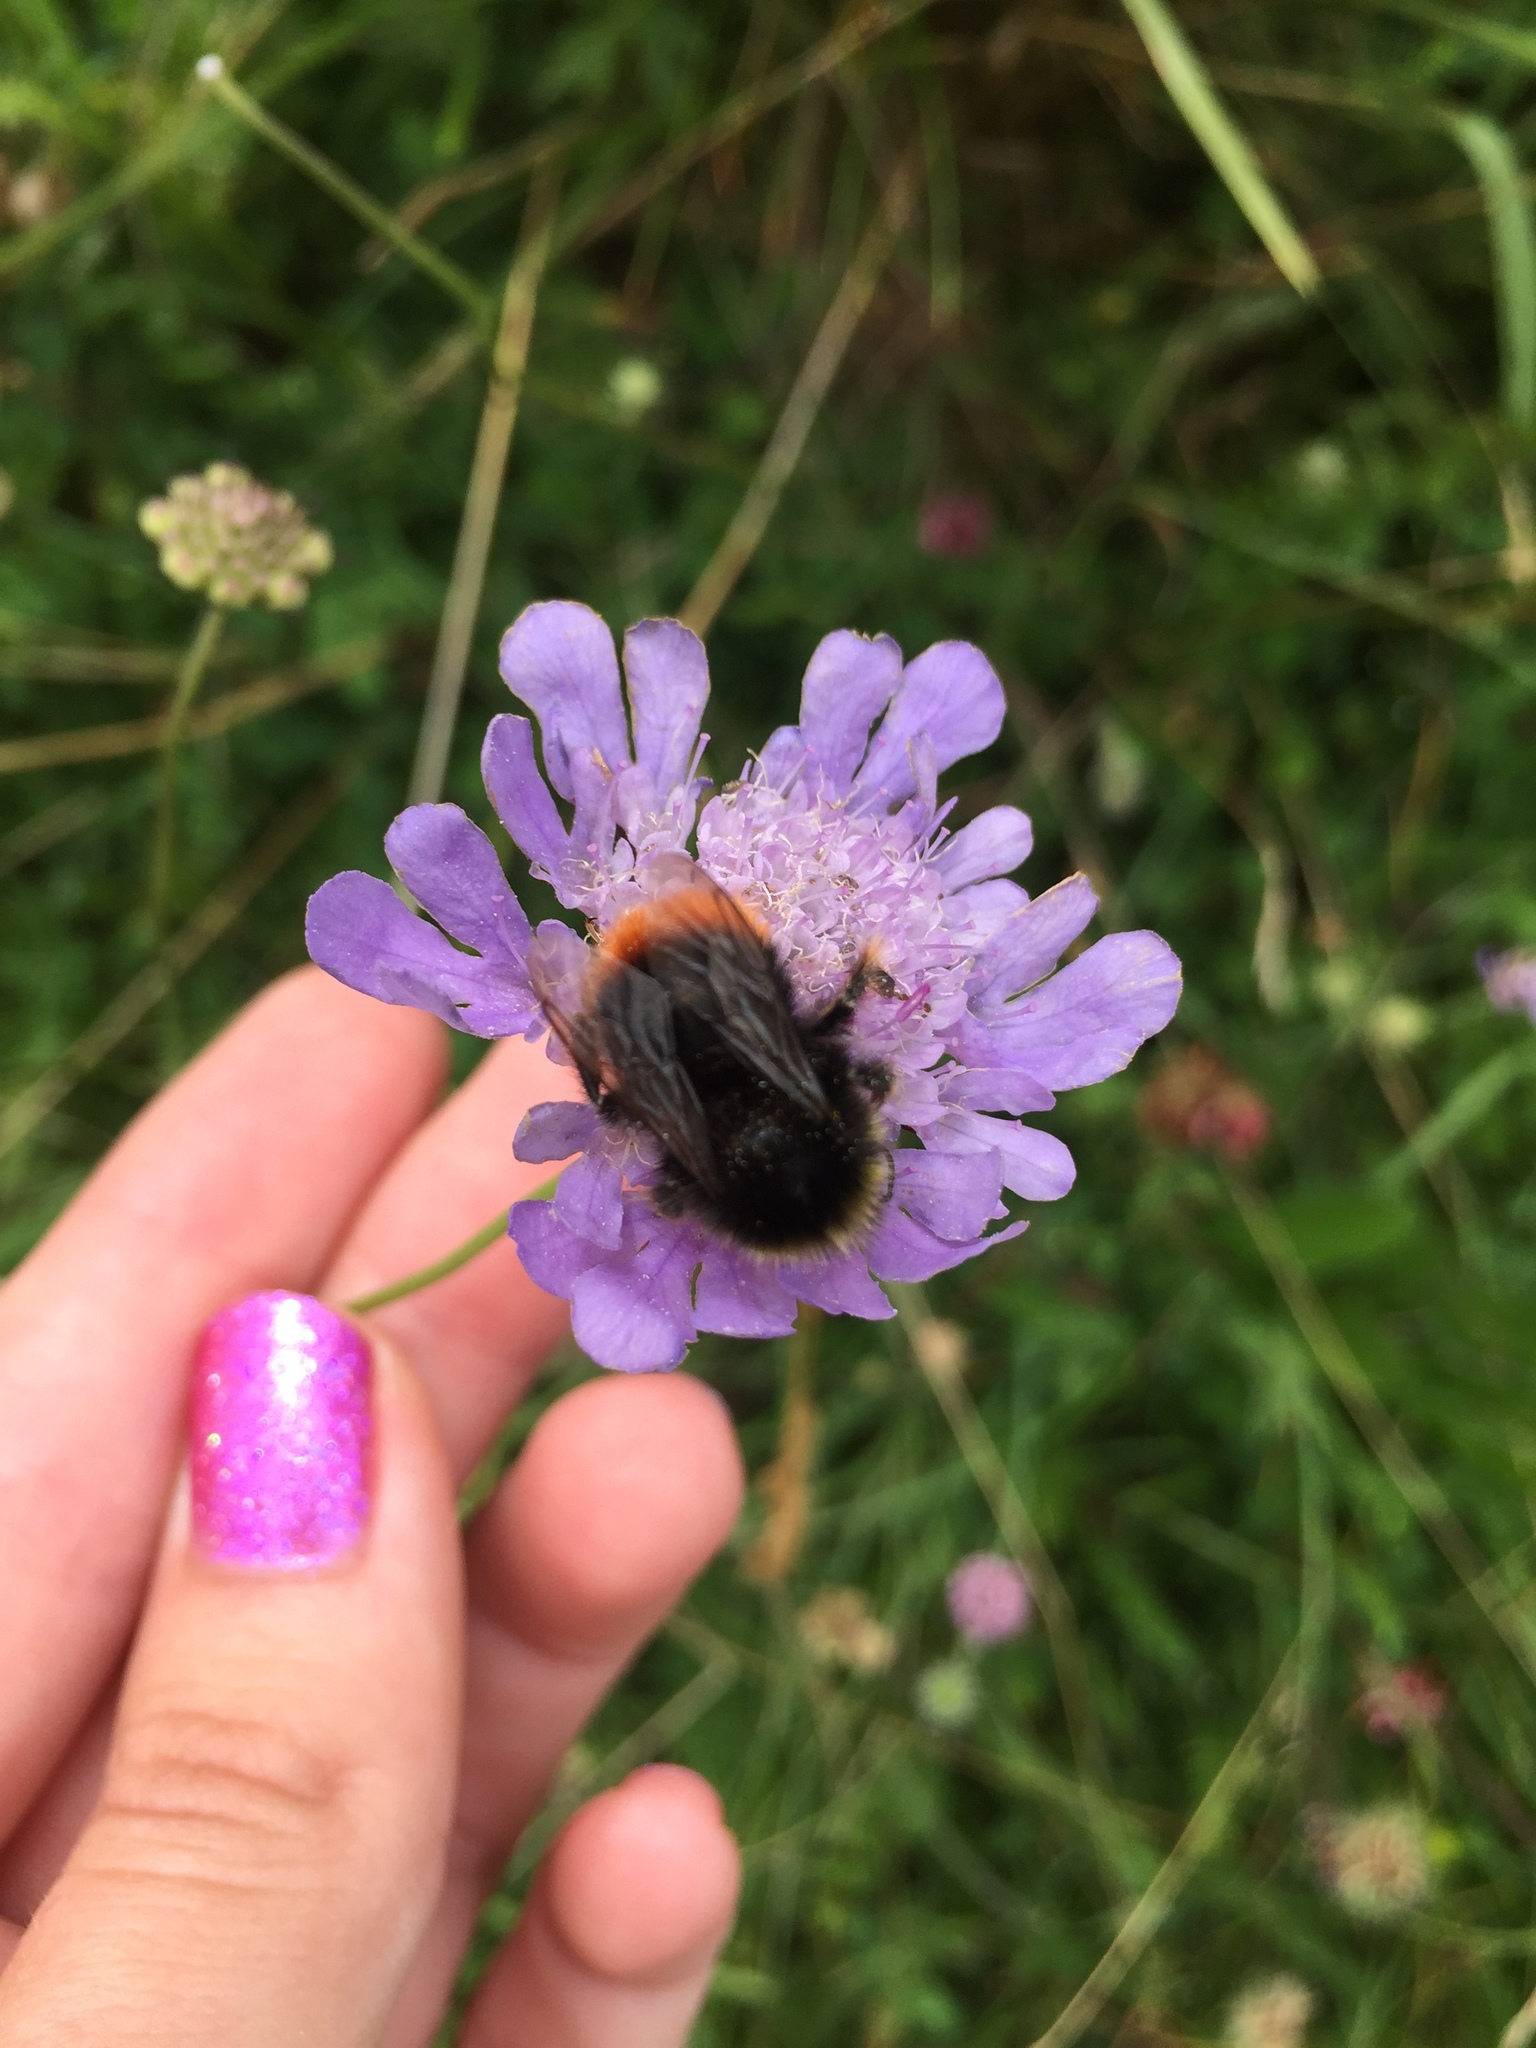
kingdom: Animalia
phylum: Arthropoda
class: Insecta
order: Hymenoptera
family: Apidae
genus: Bombus
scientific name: Bombus lapidarius
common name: Large red-tailed humble-bee
